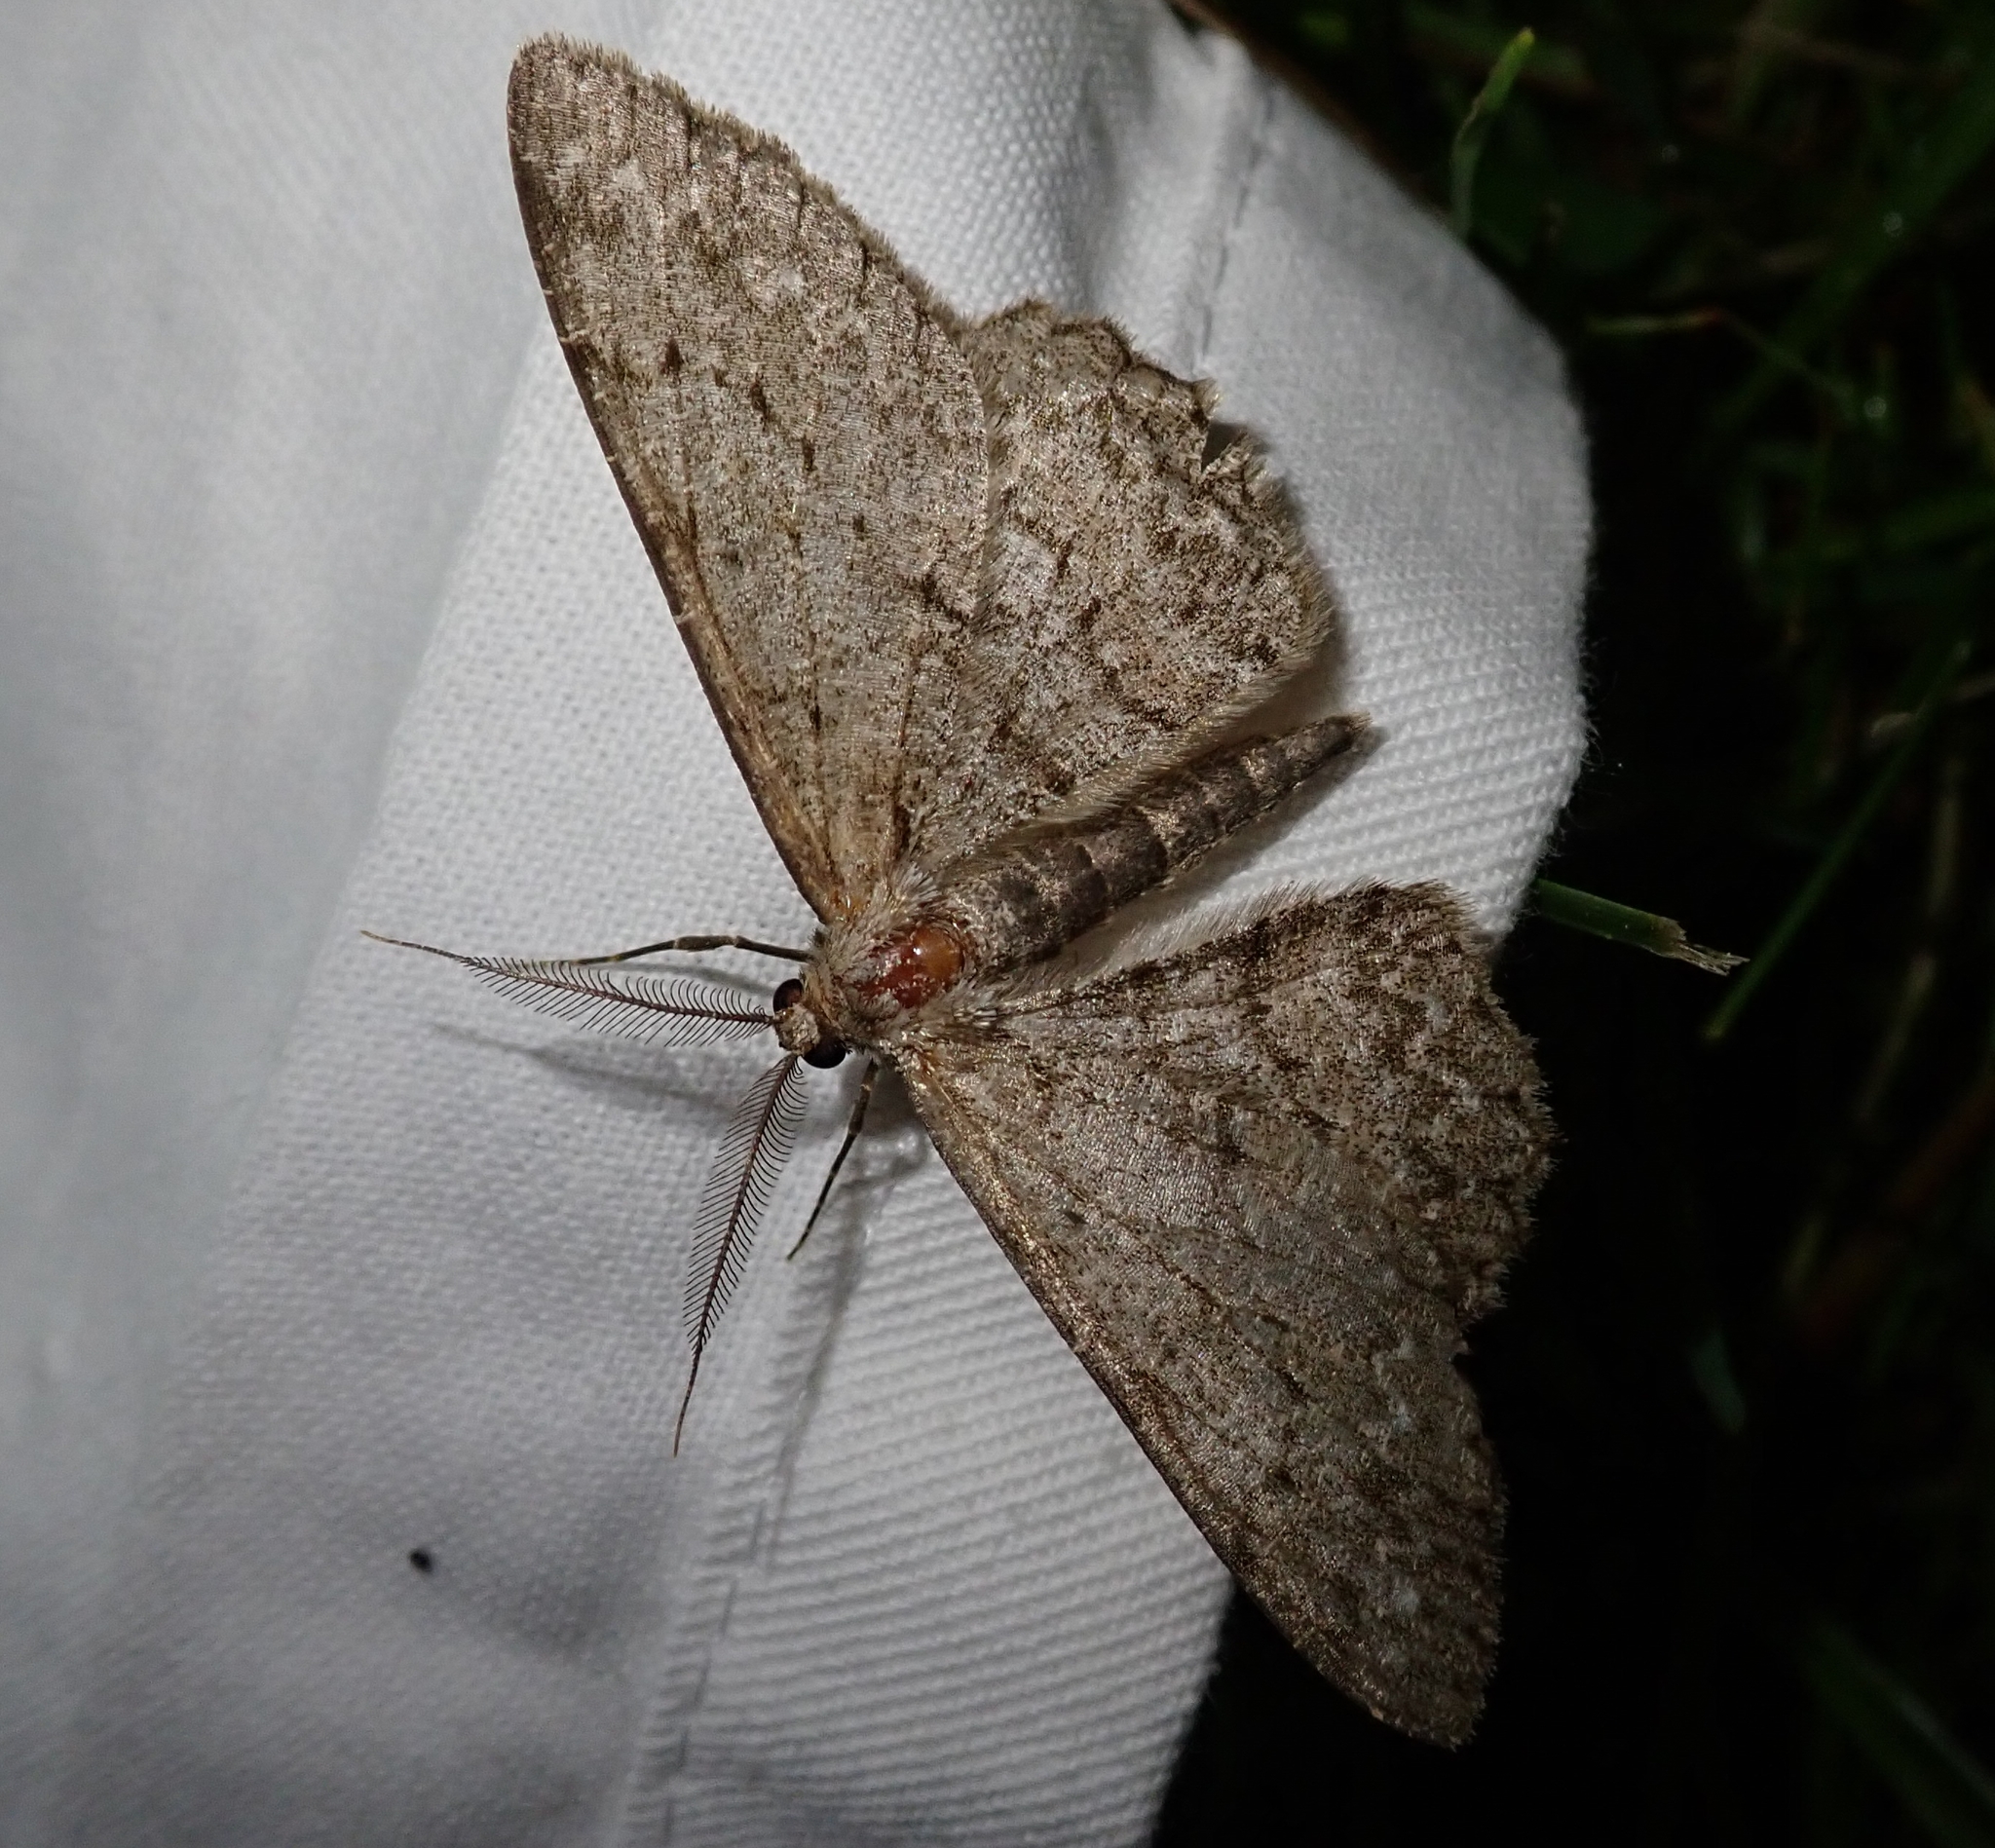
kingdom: Animalia
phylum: Arthropoda
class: Insecta
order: Lepidoptera
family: Geometridae
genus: Hypomecis
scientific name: Hypomecis punctinalis
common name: Pale oak beauty
